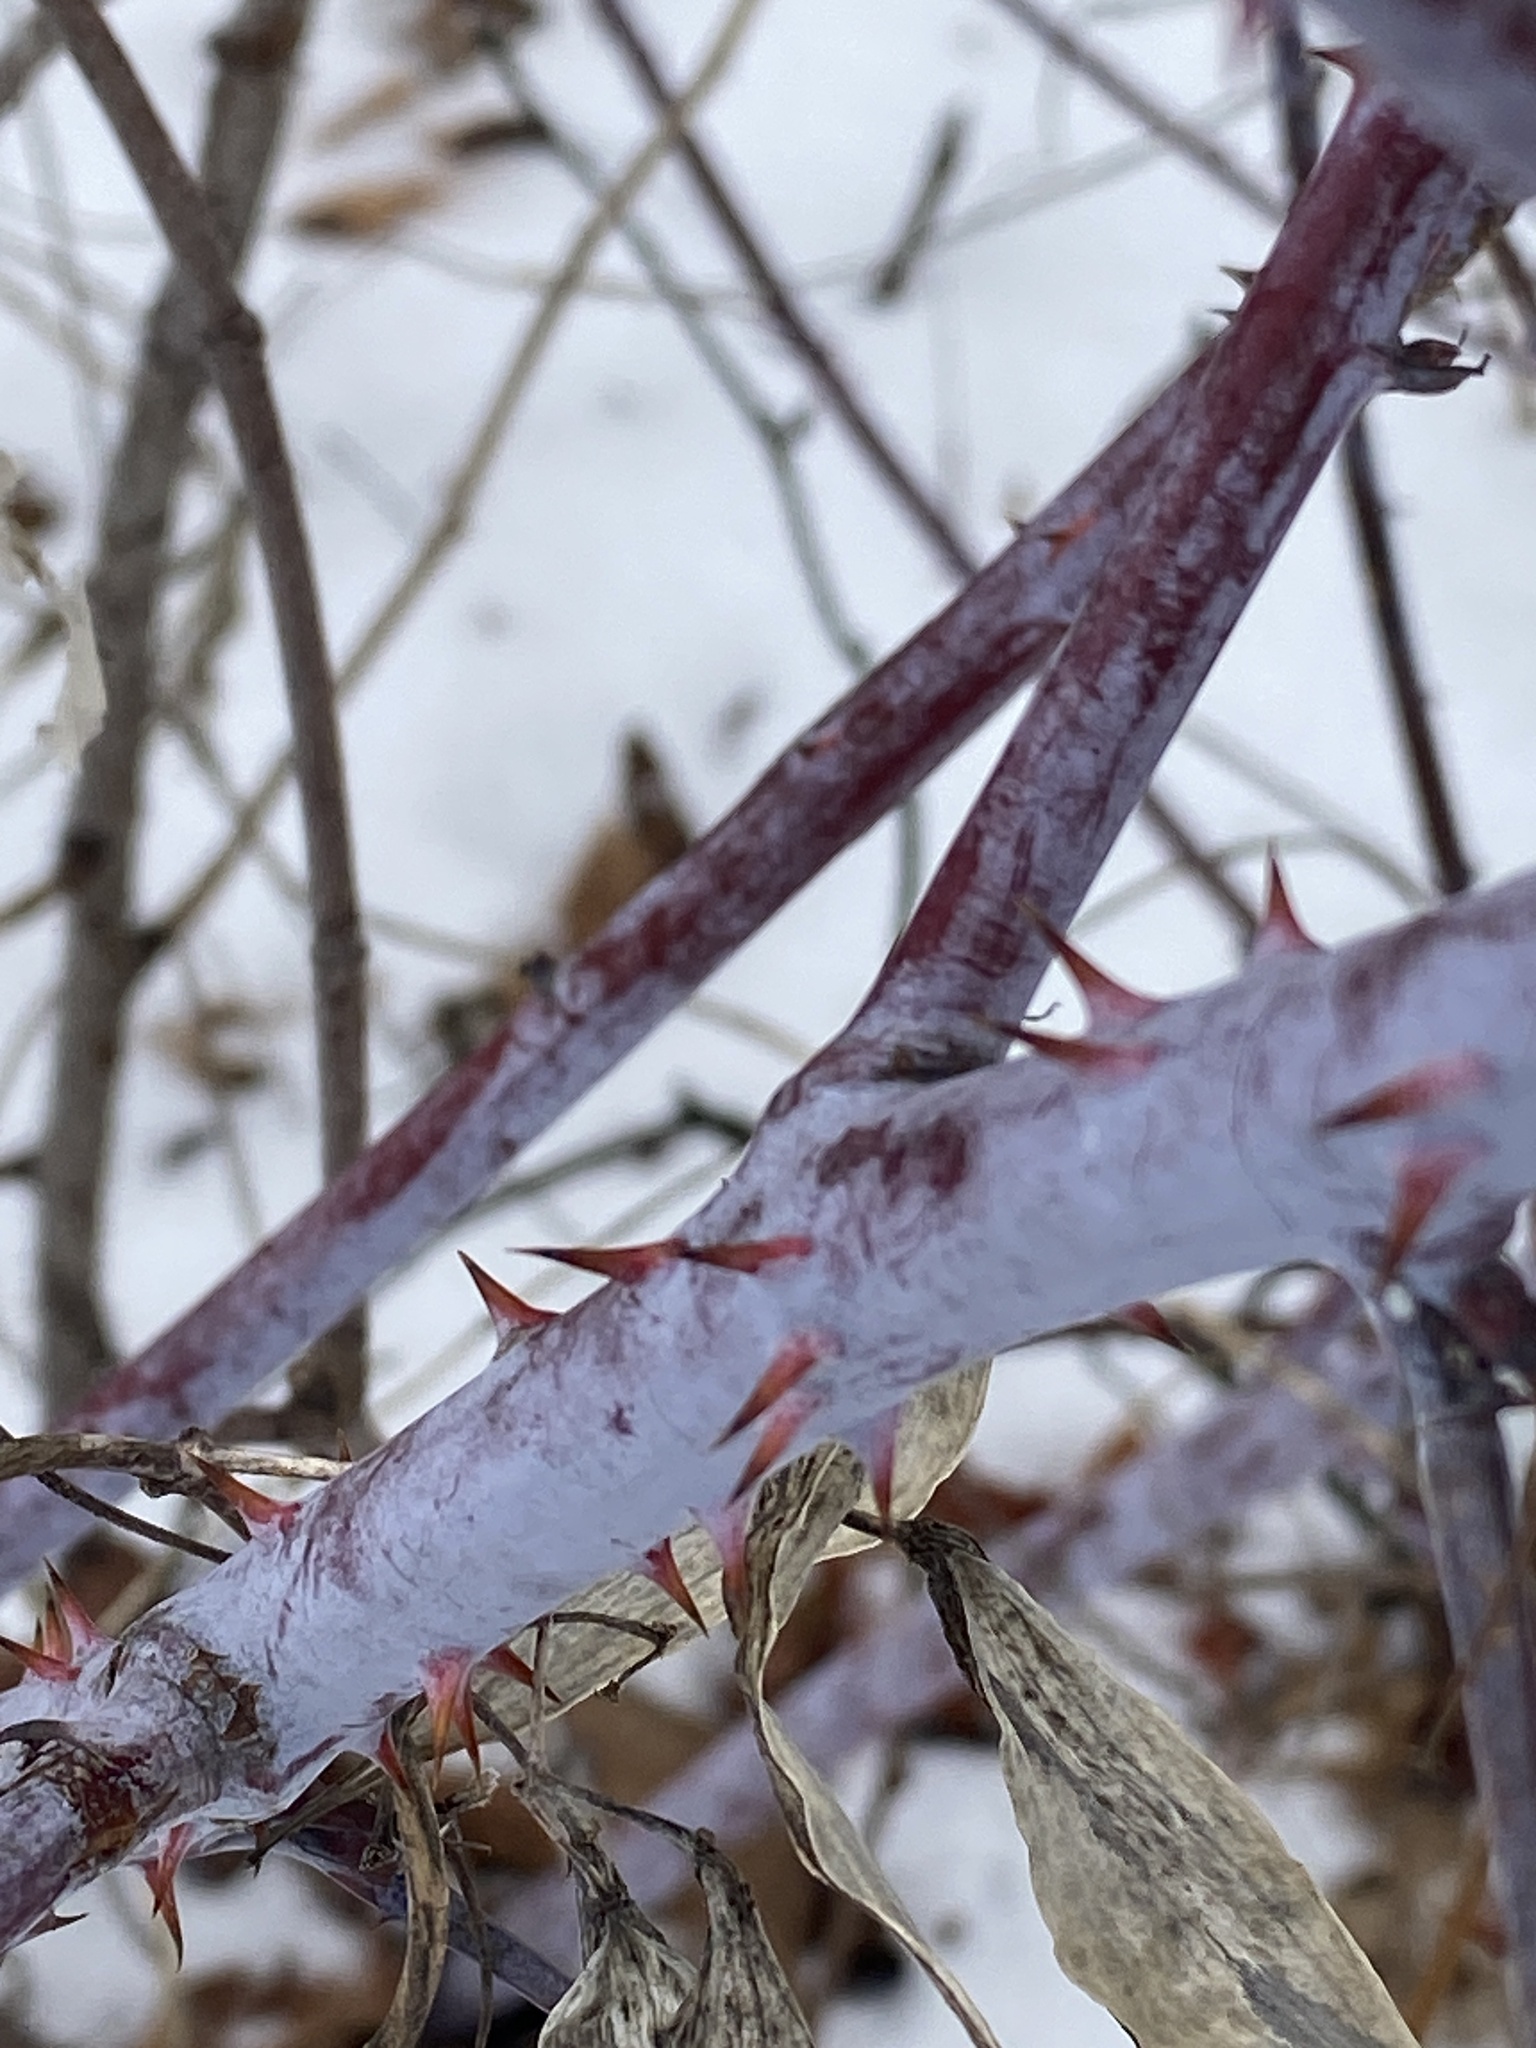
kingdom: Plantae
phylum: Tracheophyta
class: Magnoliopsida
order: Rosales
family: Rosaceae
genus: Rubus
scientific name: Rubus occidentalis
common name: Black raspberry
